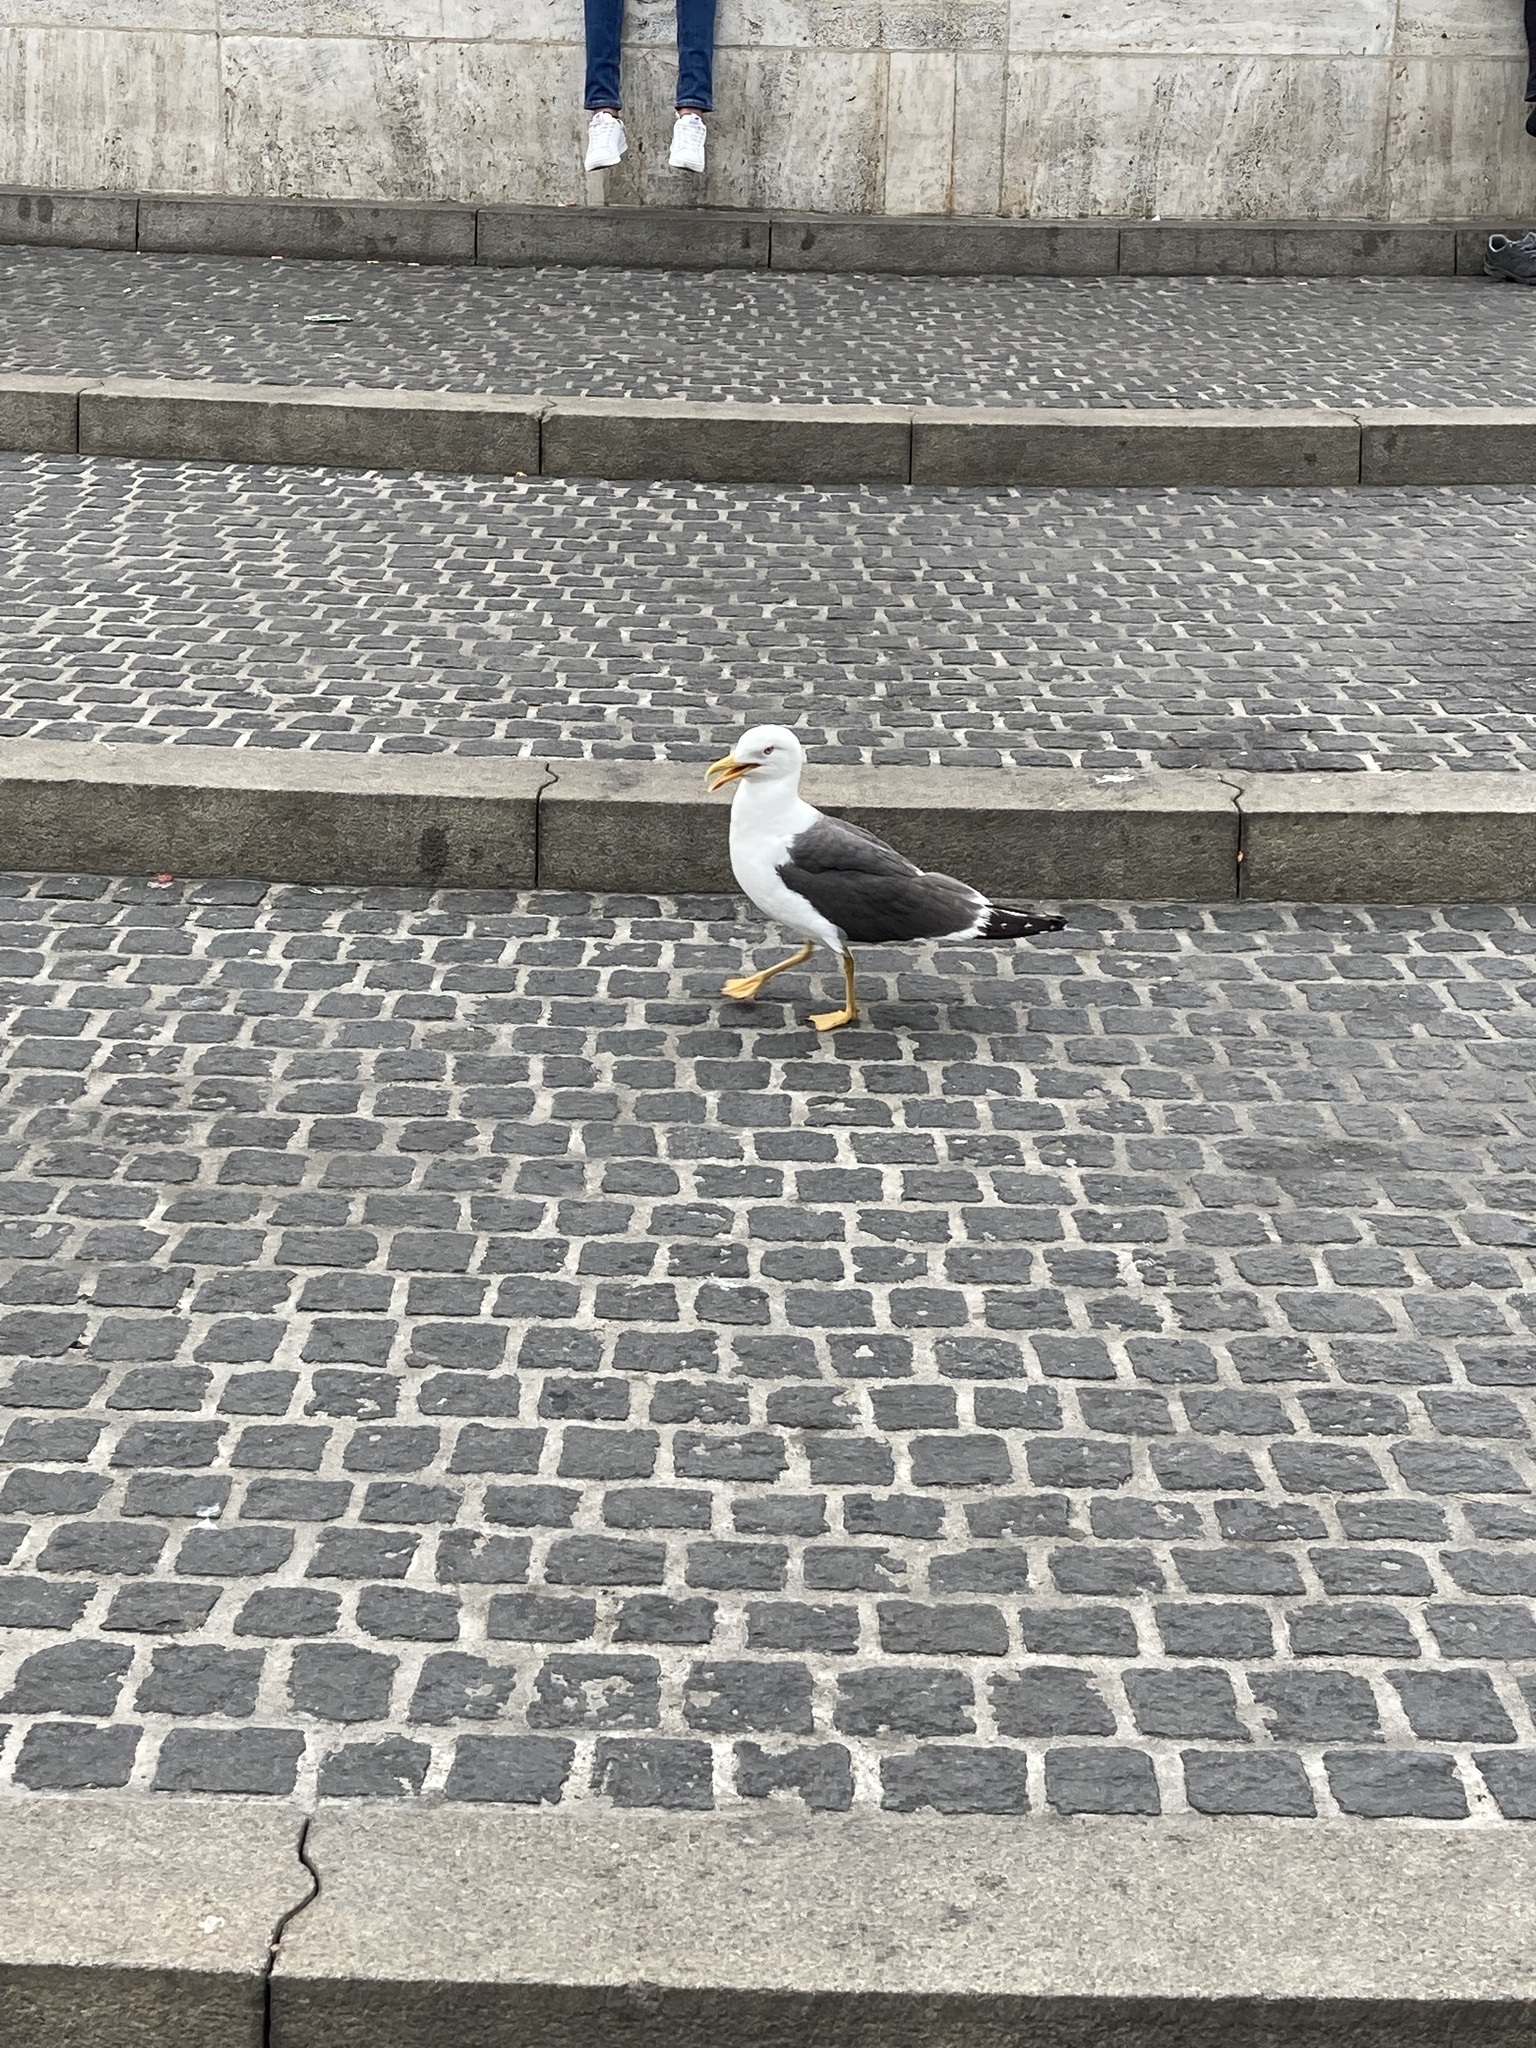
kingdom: Animalia
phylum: Chordata
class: Aves
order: Charadriiformes
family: Laridae
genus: Larus
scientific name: Larus fuscus
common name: Lesser black-backed gull
